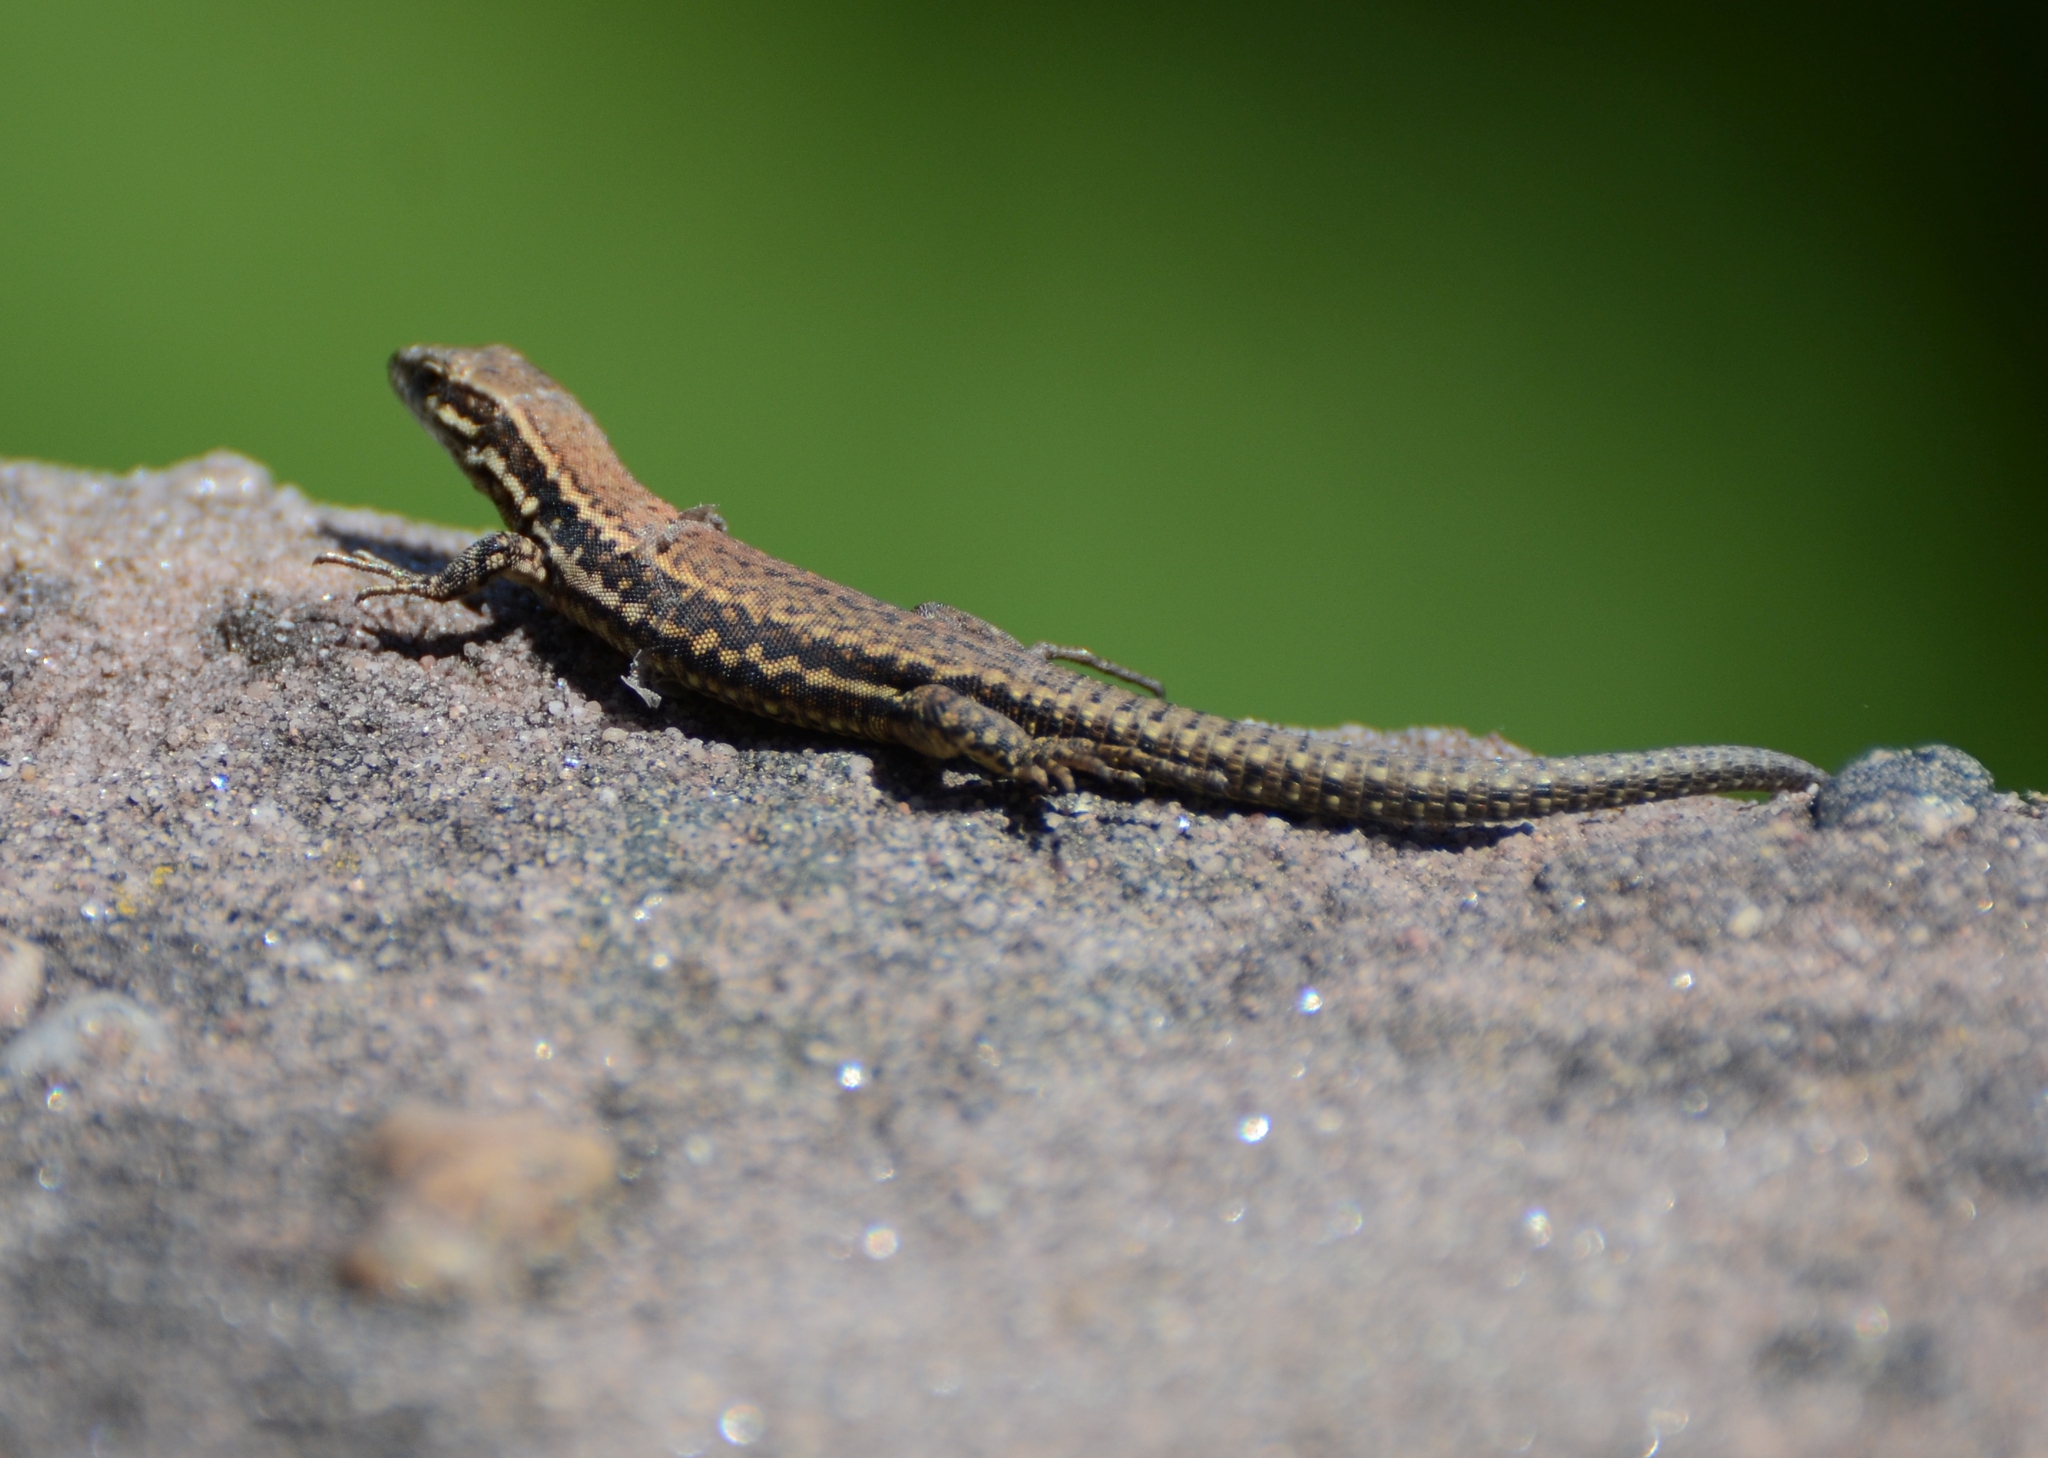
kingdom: Animalia
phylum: Chordata
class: Squamata
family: Lacertidae
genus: Podarcis
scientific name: Podarcis muralis
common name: Common wall lizard
